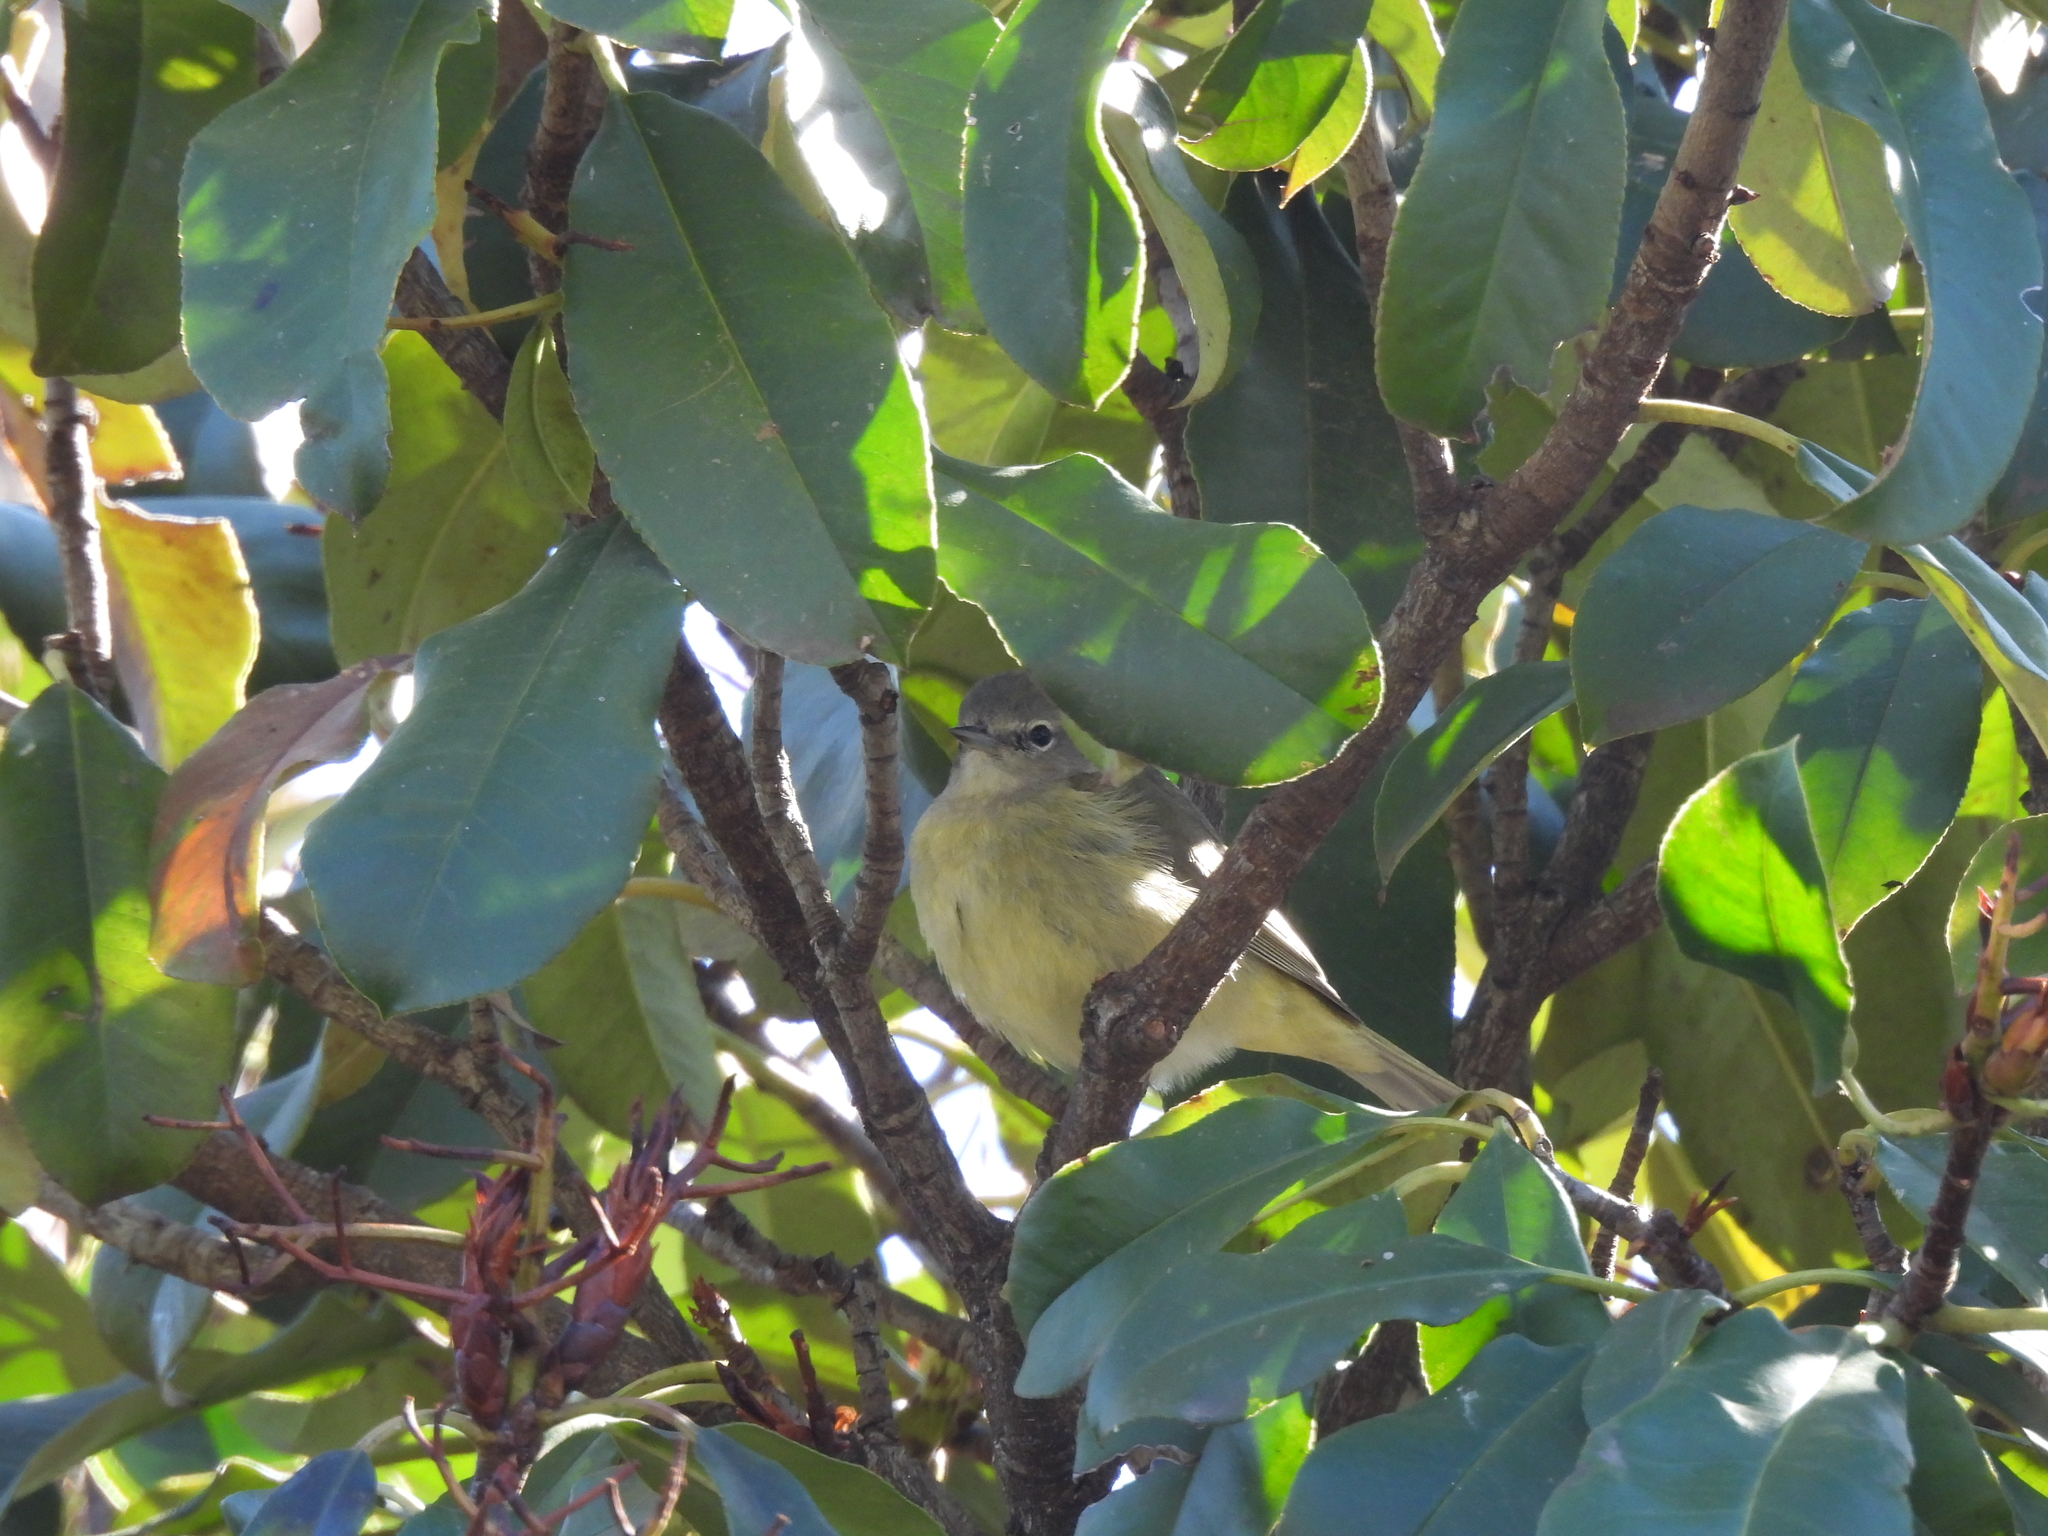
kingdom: Animalia
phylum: Chordata
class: Aves
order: Passeriformes
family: Parulidae
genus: Leiothlypis
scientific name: Leiothlypis celata
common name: Orange-crowned warbler
